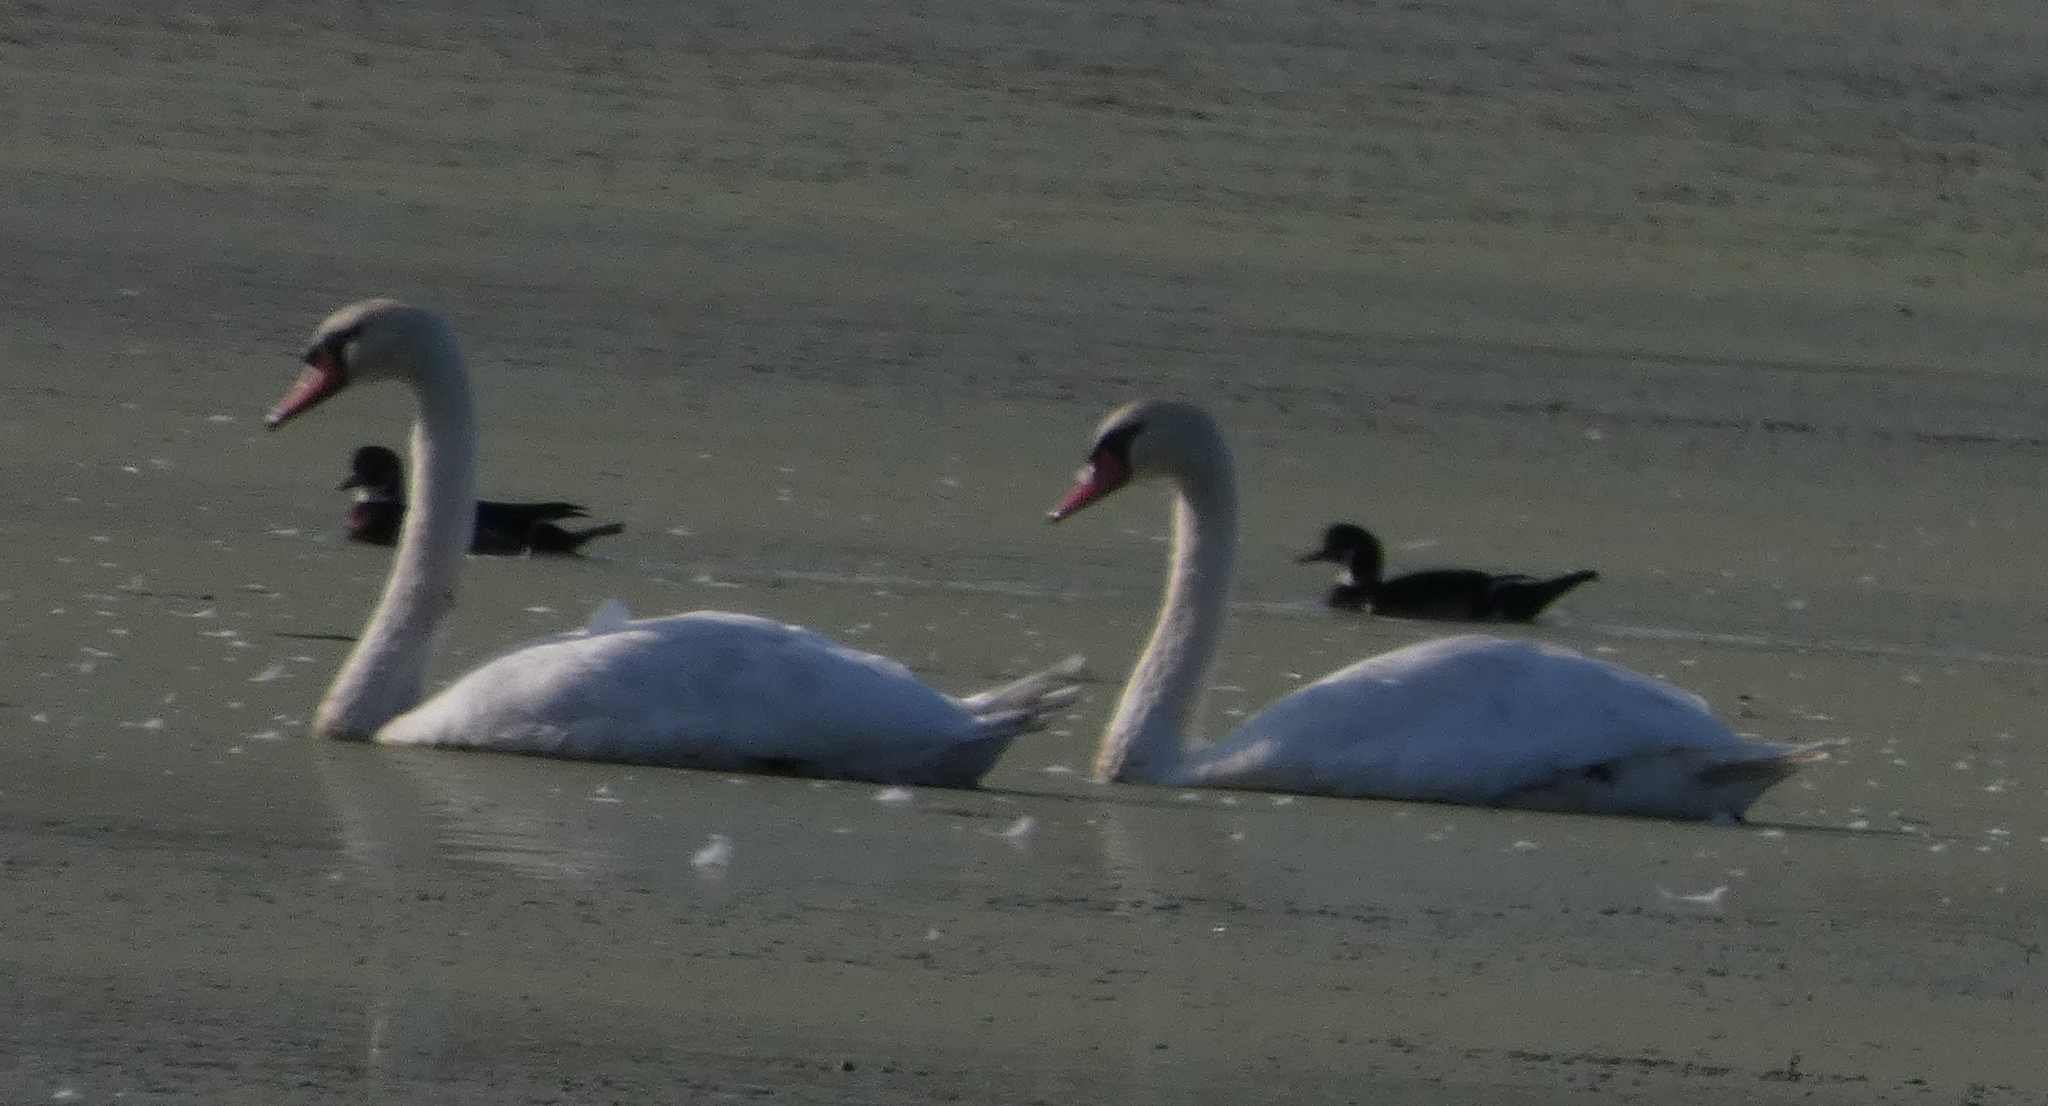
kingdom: Animalia
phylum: Chordata
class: Aves
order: Anseriformes
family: Anatidae
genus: Cygnus
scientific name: Cygnus olor
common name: Mute swan
